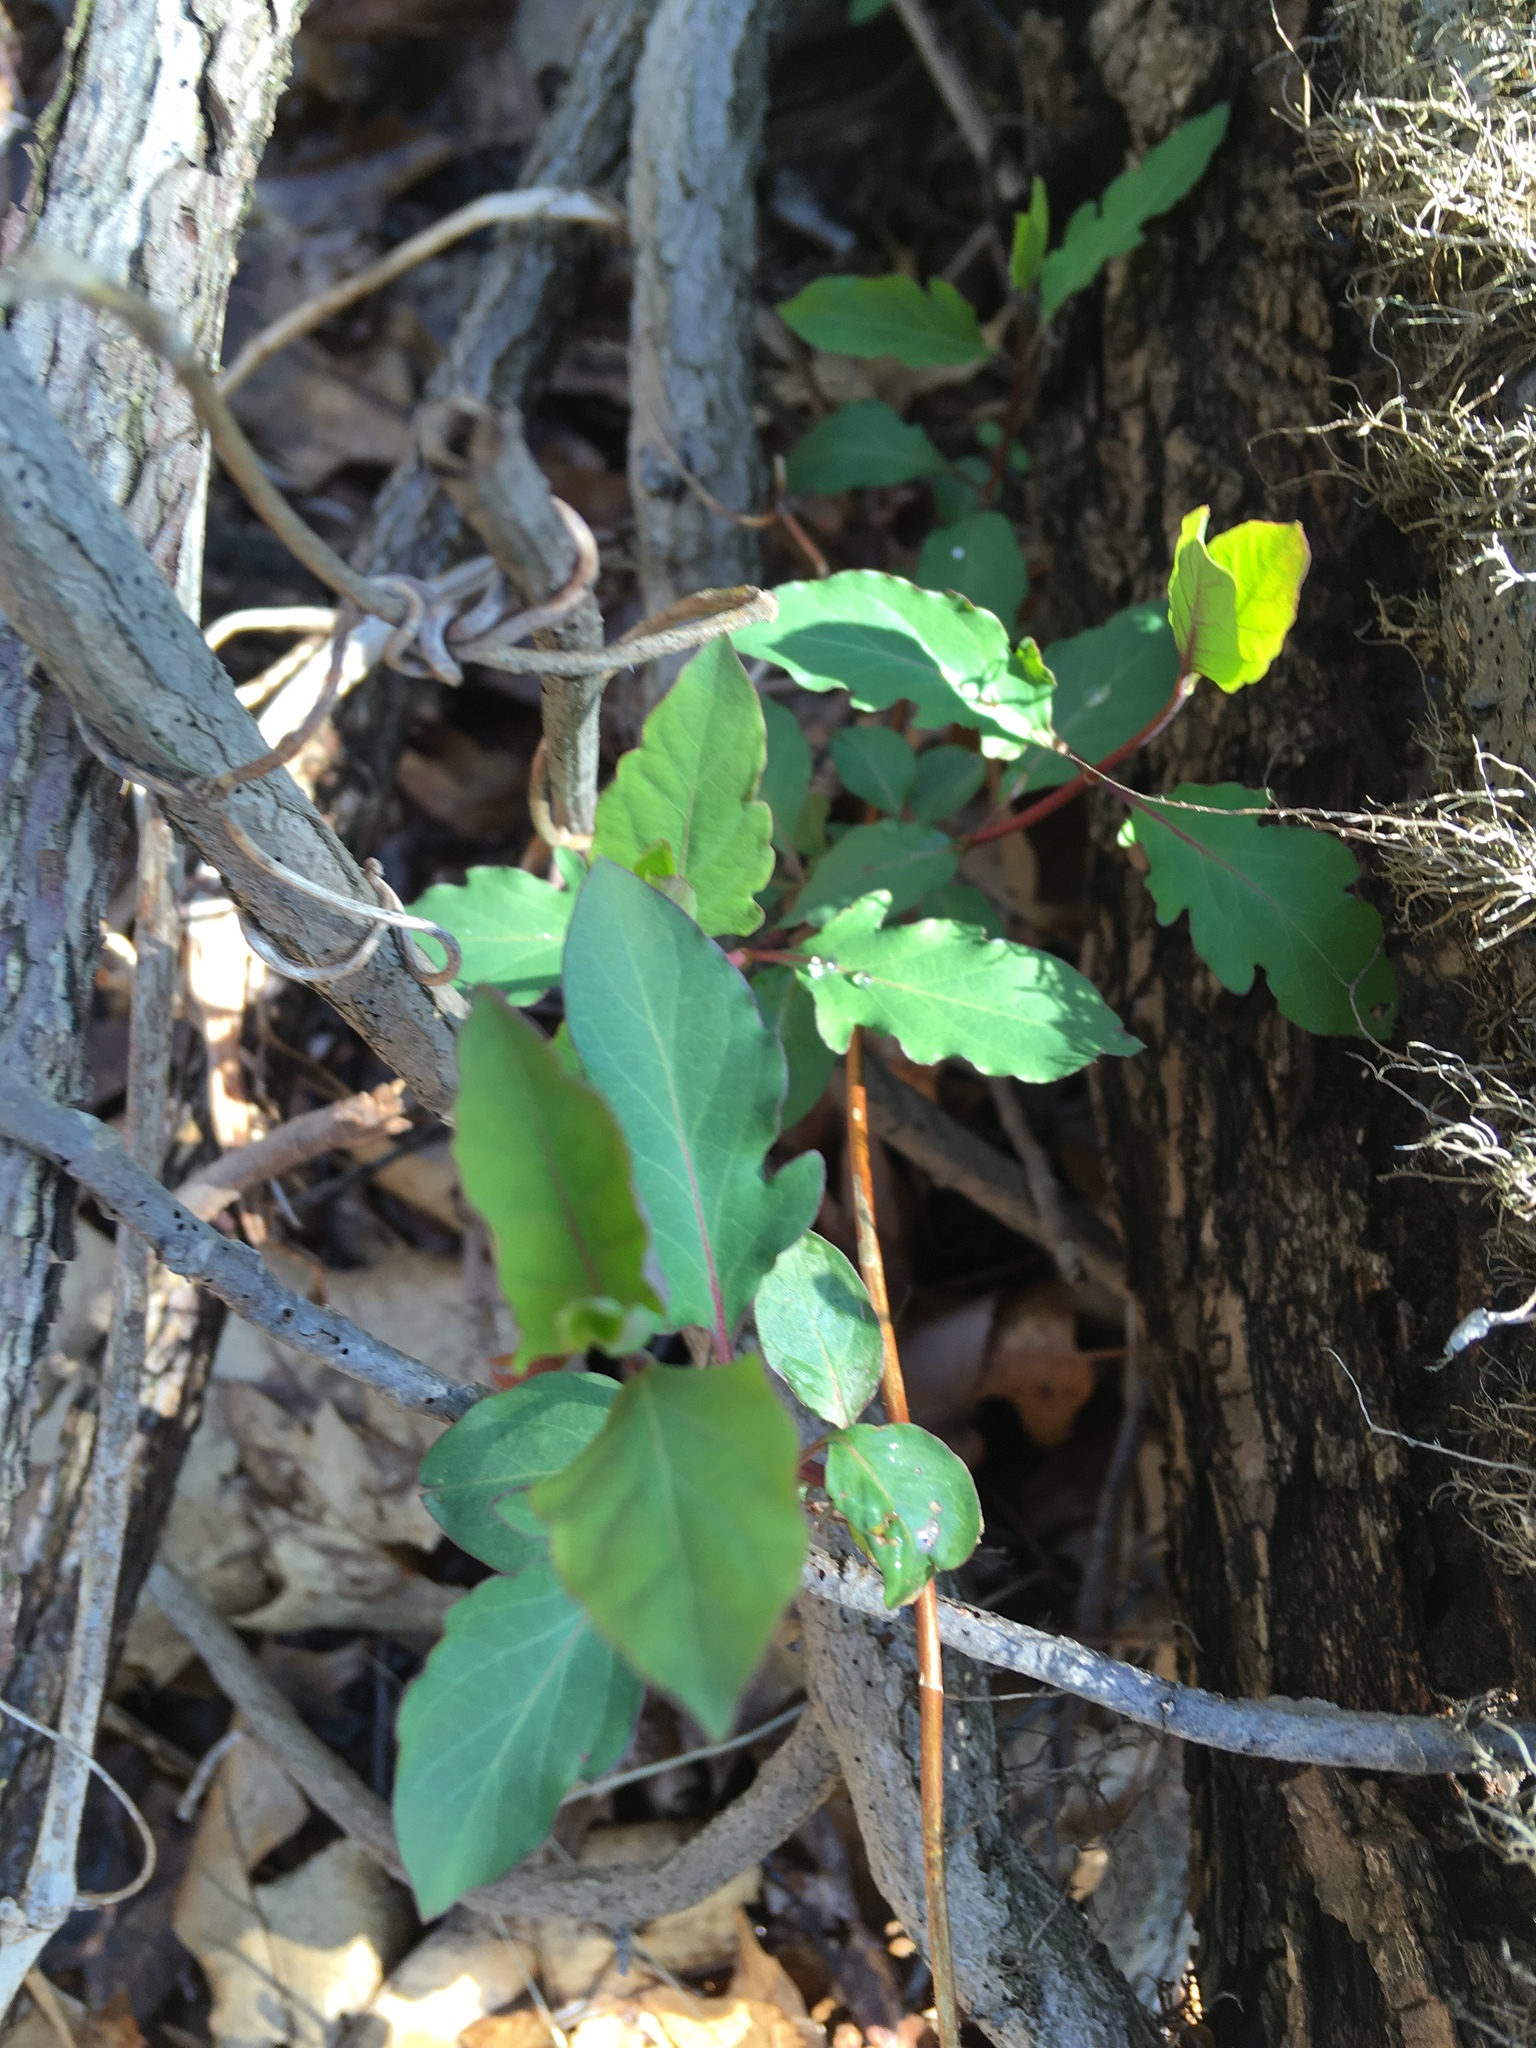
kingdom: Plantae
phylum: Tracheophyta
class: Magnoliopsida
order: Dipsacales
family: Caprifoliaceae
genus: Lonicera
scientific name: Lonicera japonica
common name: Japanese honeysuckle
